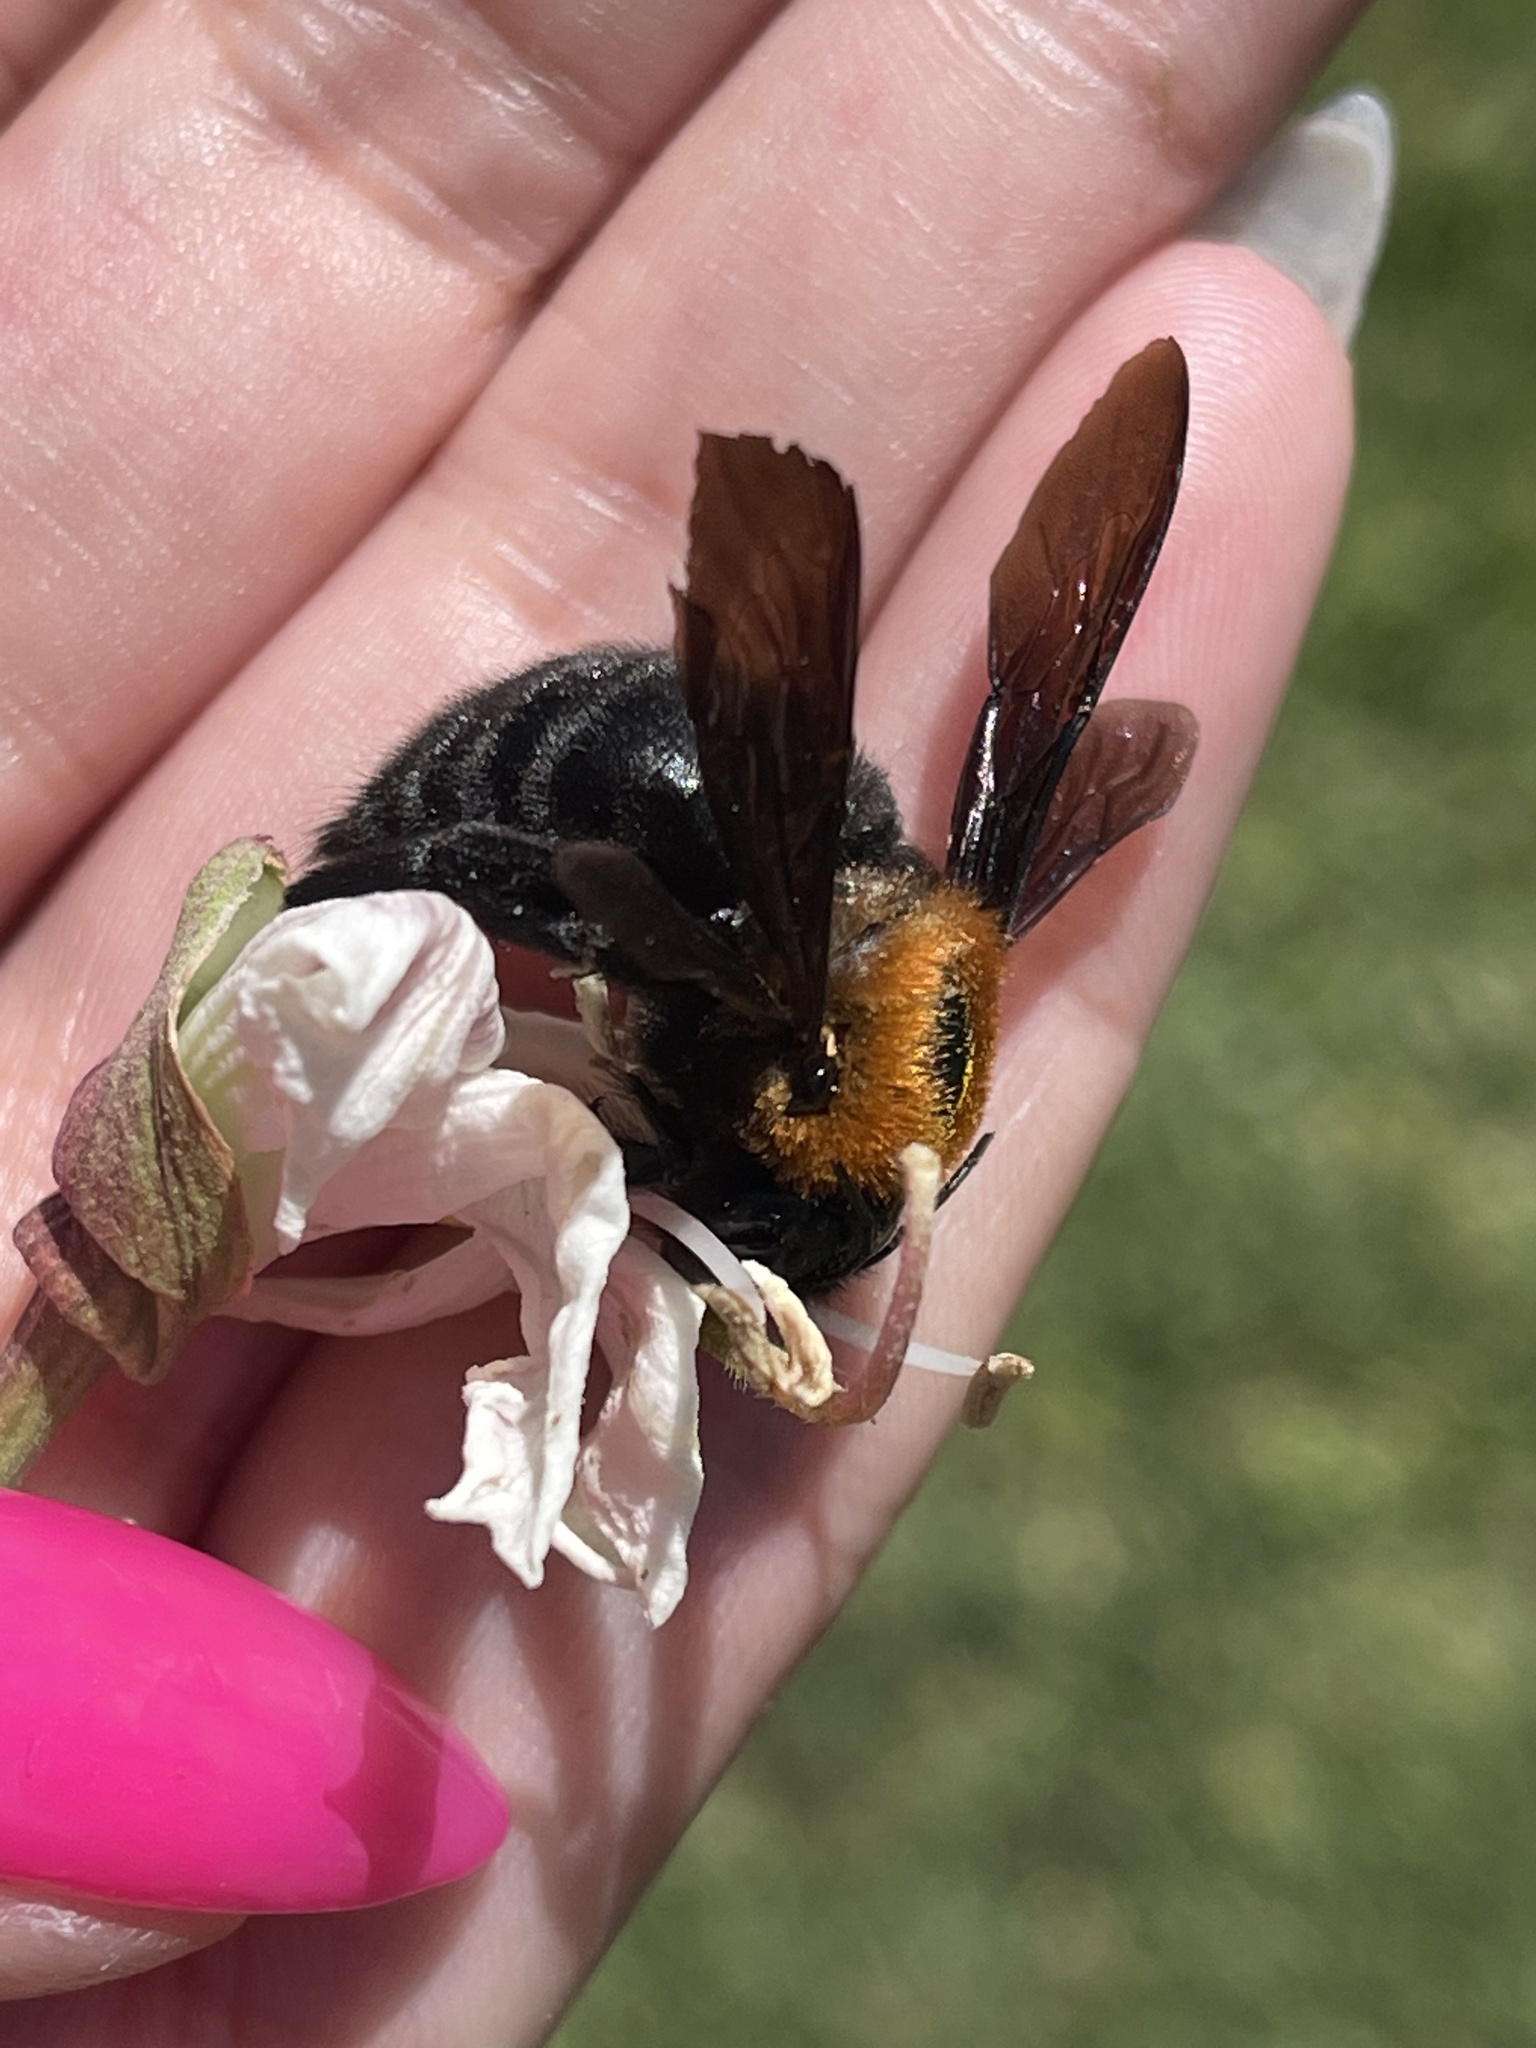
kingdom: Animalia
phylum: Arthropoda
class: Insecta
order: Hymenoptera
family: Apidae
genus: Xylocopa
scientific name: Xylocopa eximia
